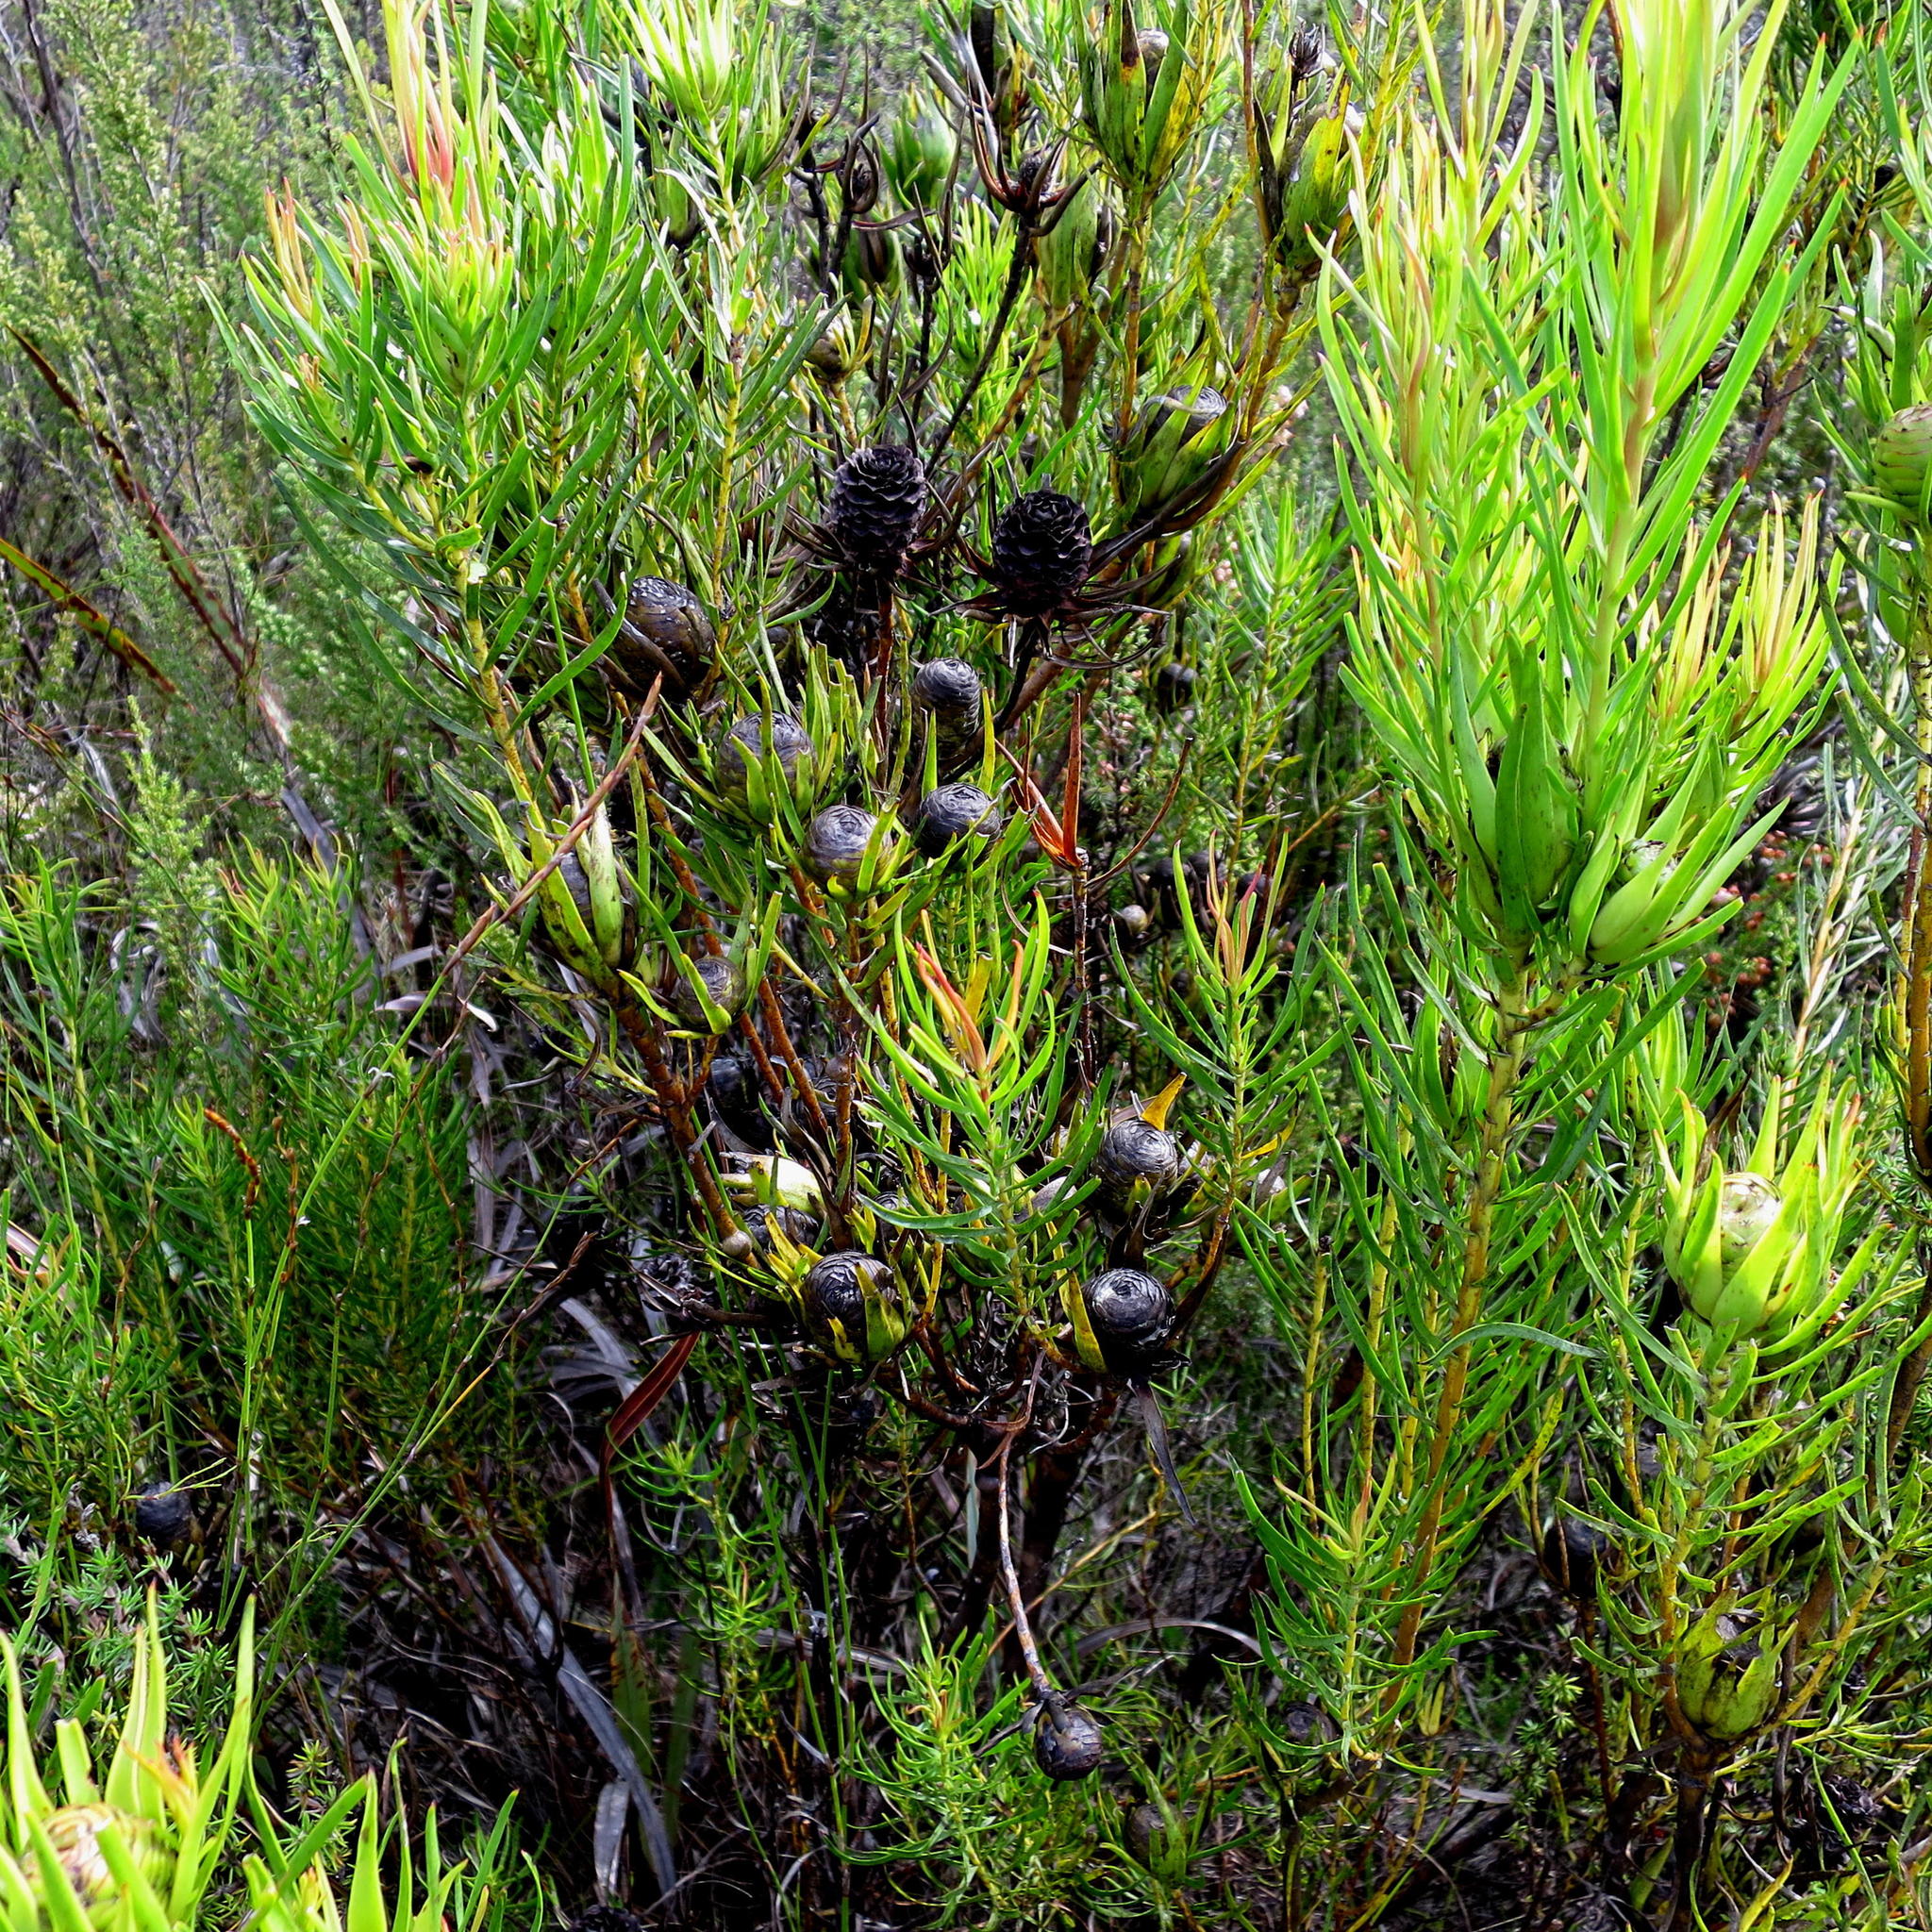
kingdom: Plantae
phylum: Tracheophyta
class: Magnoliopsida
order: Proteales
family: Proteaceae
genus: Leucadendron
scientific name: Leucadendron spissifolium
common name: Spear-leaf conebush
